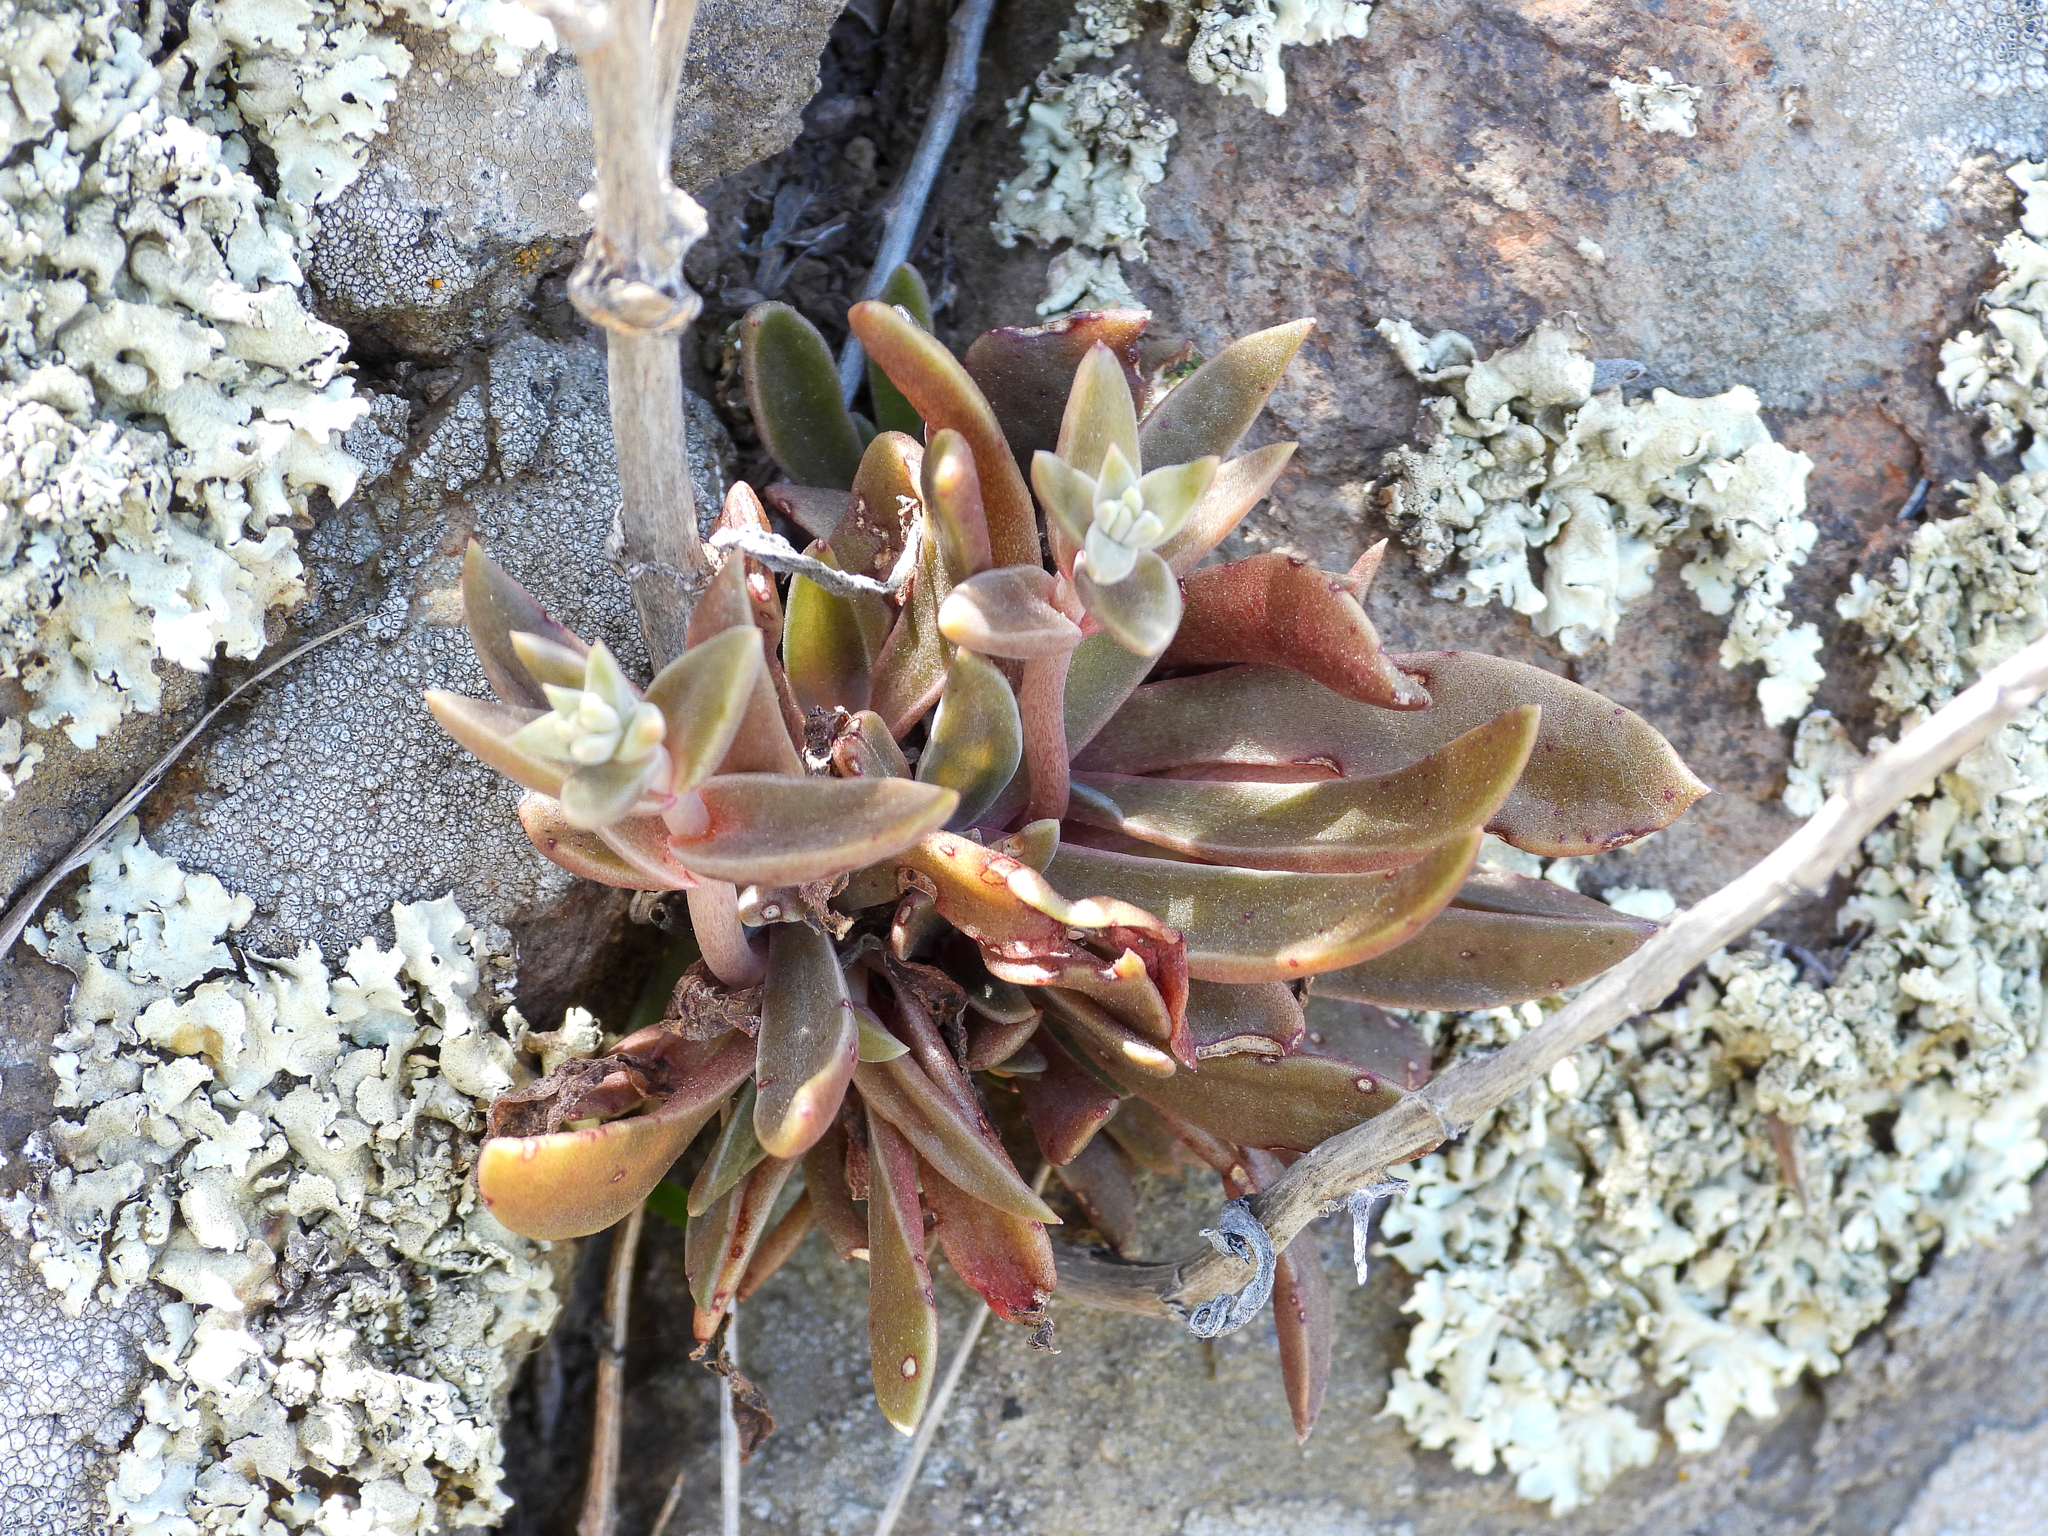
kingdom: Plantae
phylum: Tracheophyta
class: Magnoliopsida
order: Saxifragales
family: Crassulaceae
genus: Dudleya
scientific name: Dudleya parva
